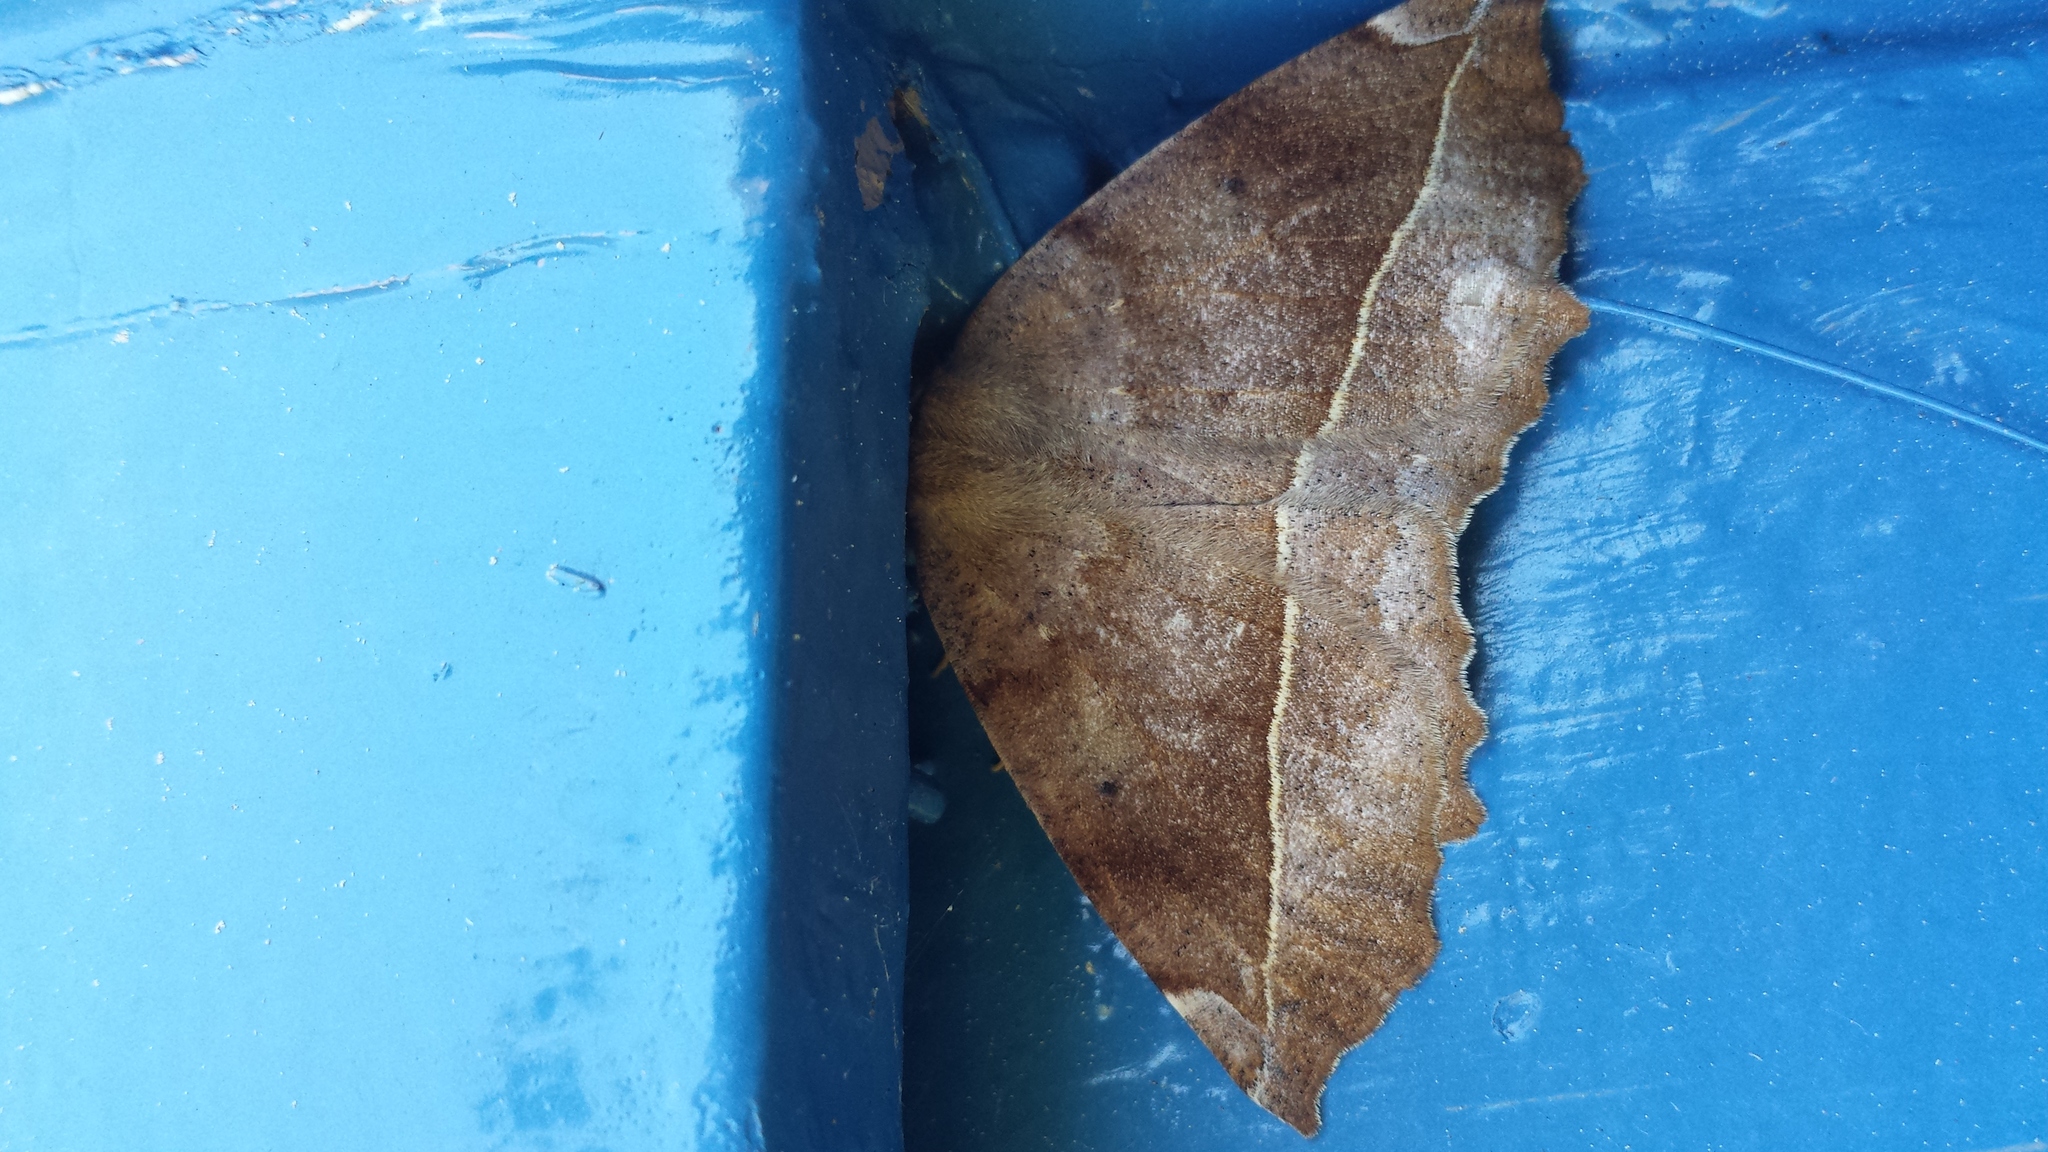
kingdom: Animalia
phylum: Arthropoda
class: Insecta
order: Lepidoptera
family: Geometridae
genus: Eutrapela
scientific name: Eutrapela clemataria
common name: Curved-toothed geometer
